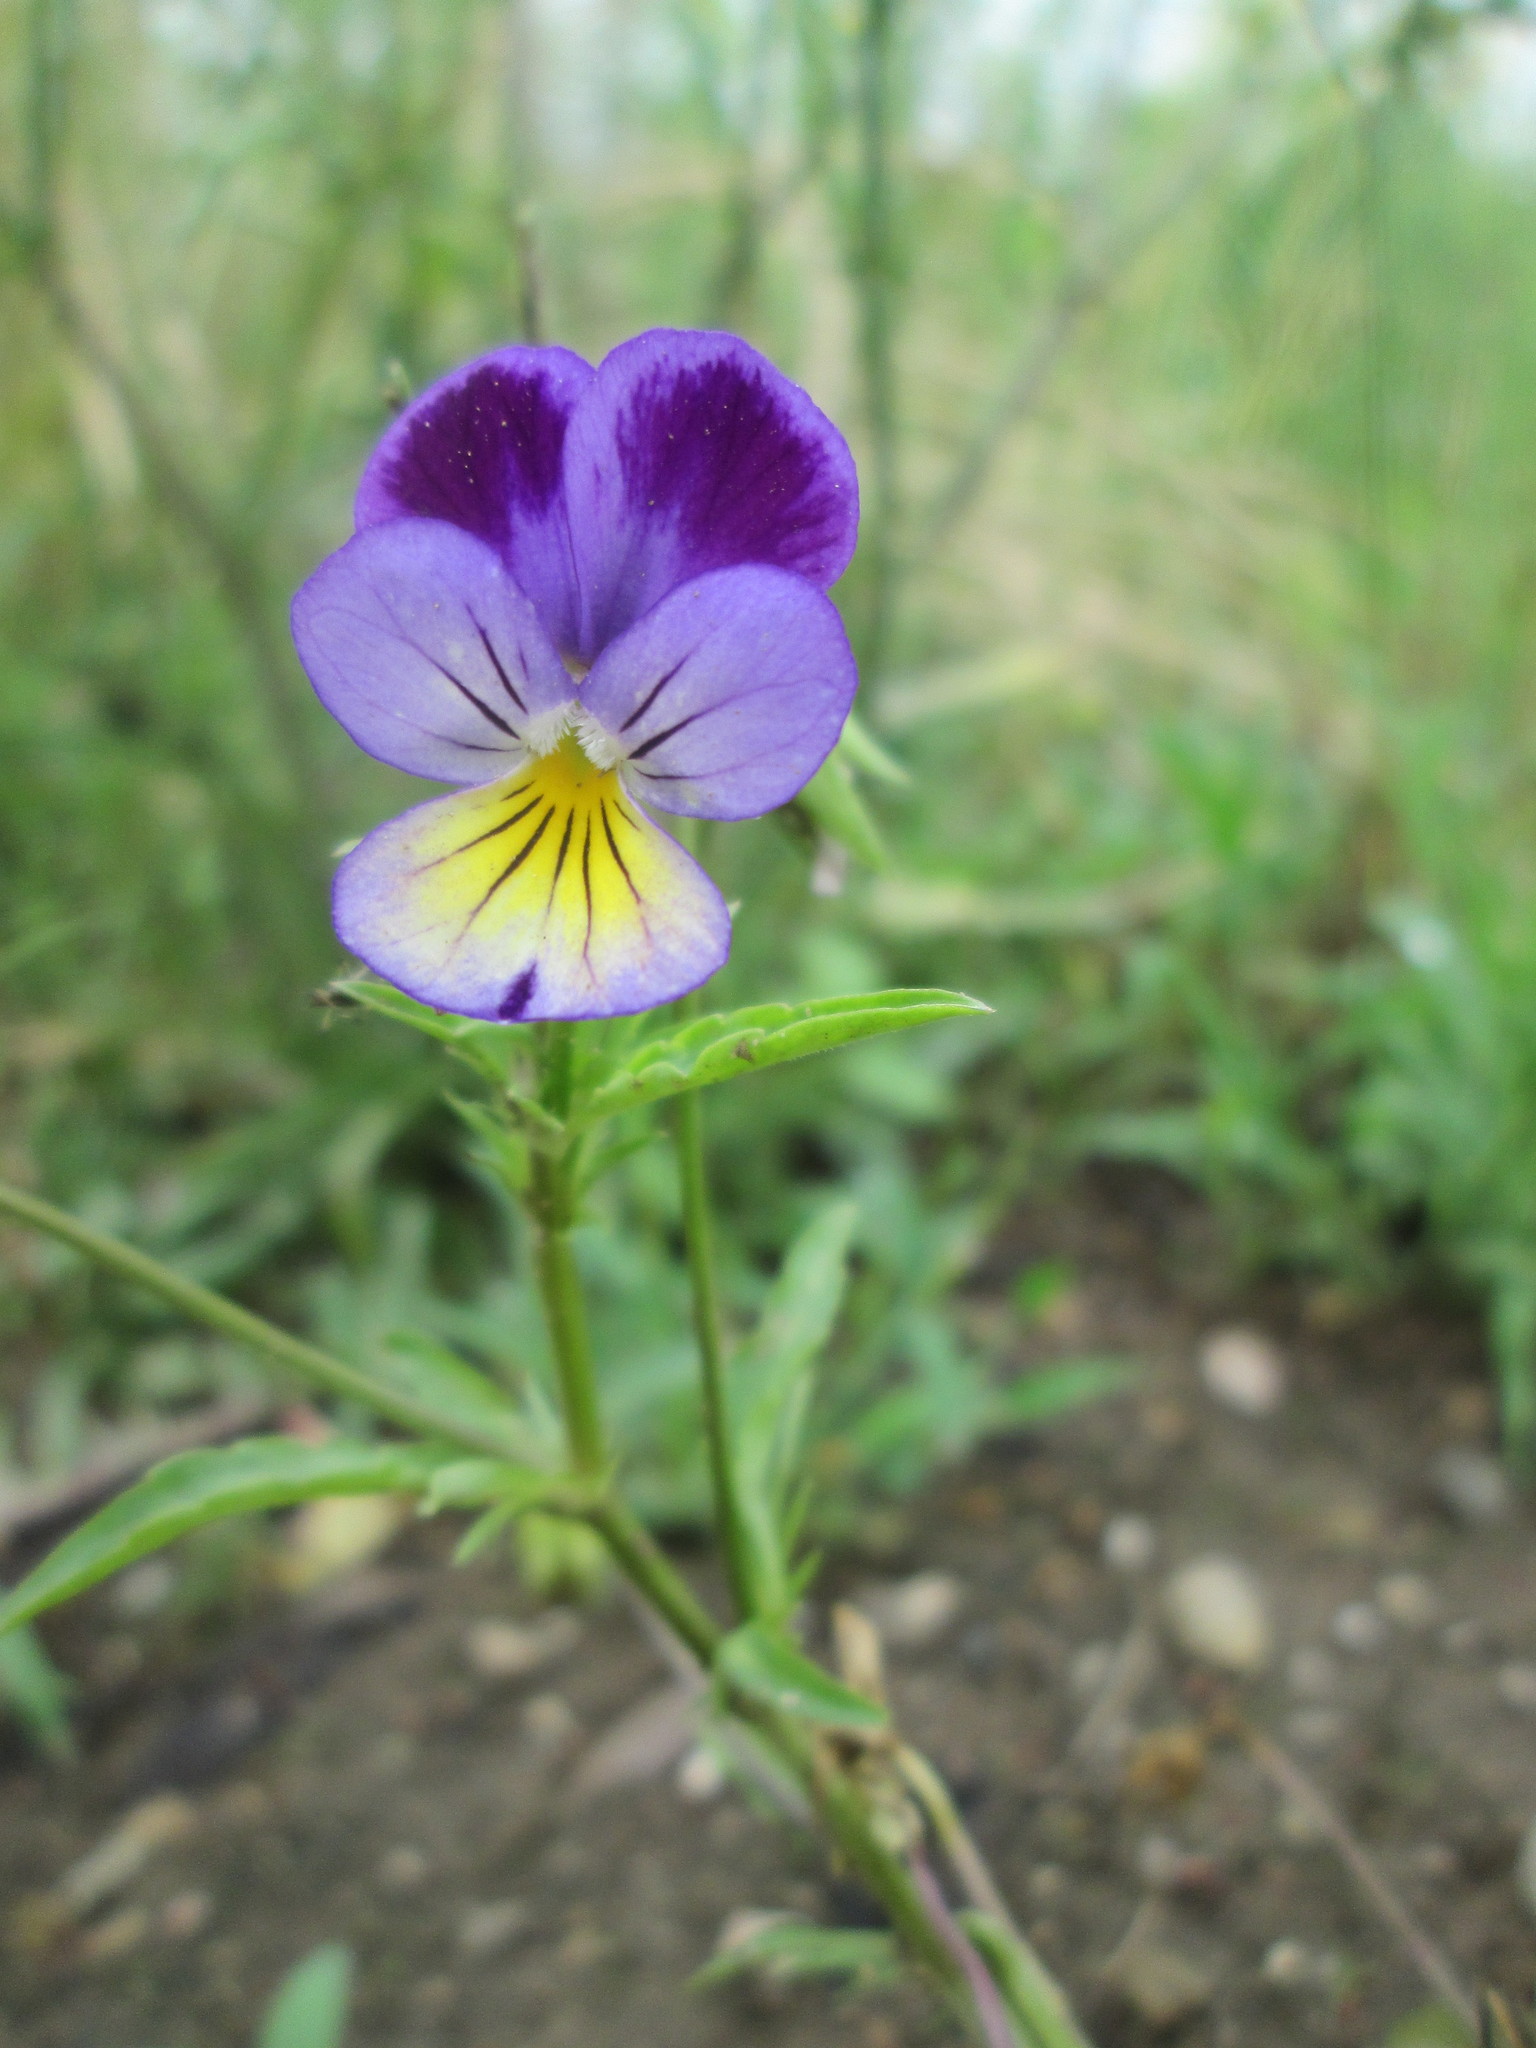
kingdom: Plantae
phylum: Tracheophyta
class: Magnoliopsida
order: Malpighiales
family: Violaceae
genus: Viola
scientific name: Viola tricolor
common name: Pansy
